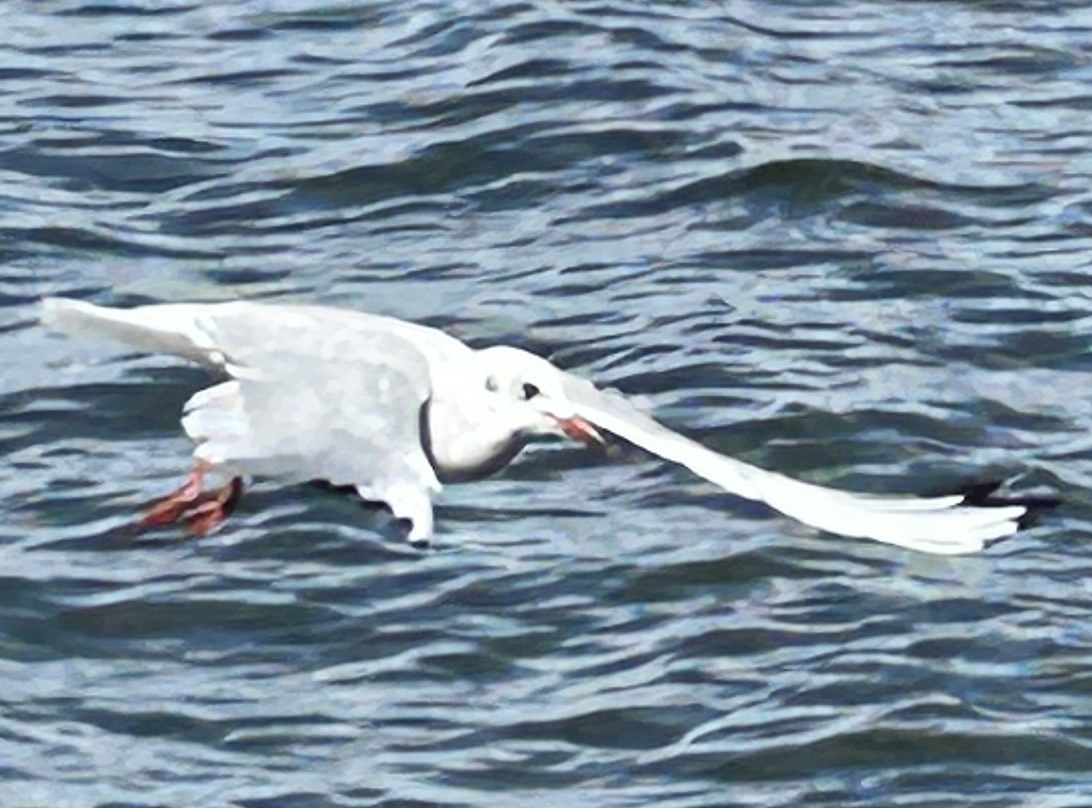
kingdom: Animalia
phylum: Chordata
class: Aves
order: Charadriiformes
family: Laridae
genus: Chroicocephalus
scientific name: Chroicocephalus ridibundus
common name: Black-headed gull
